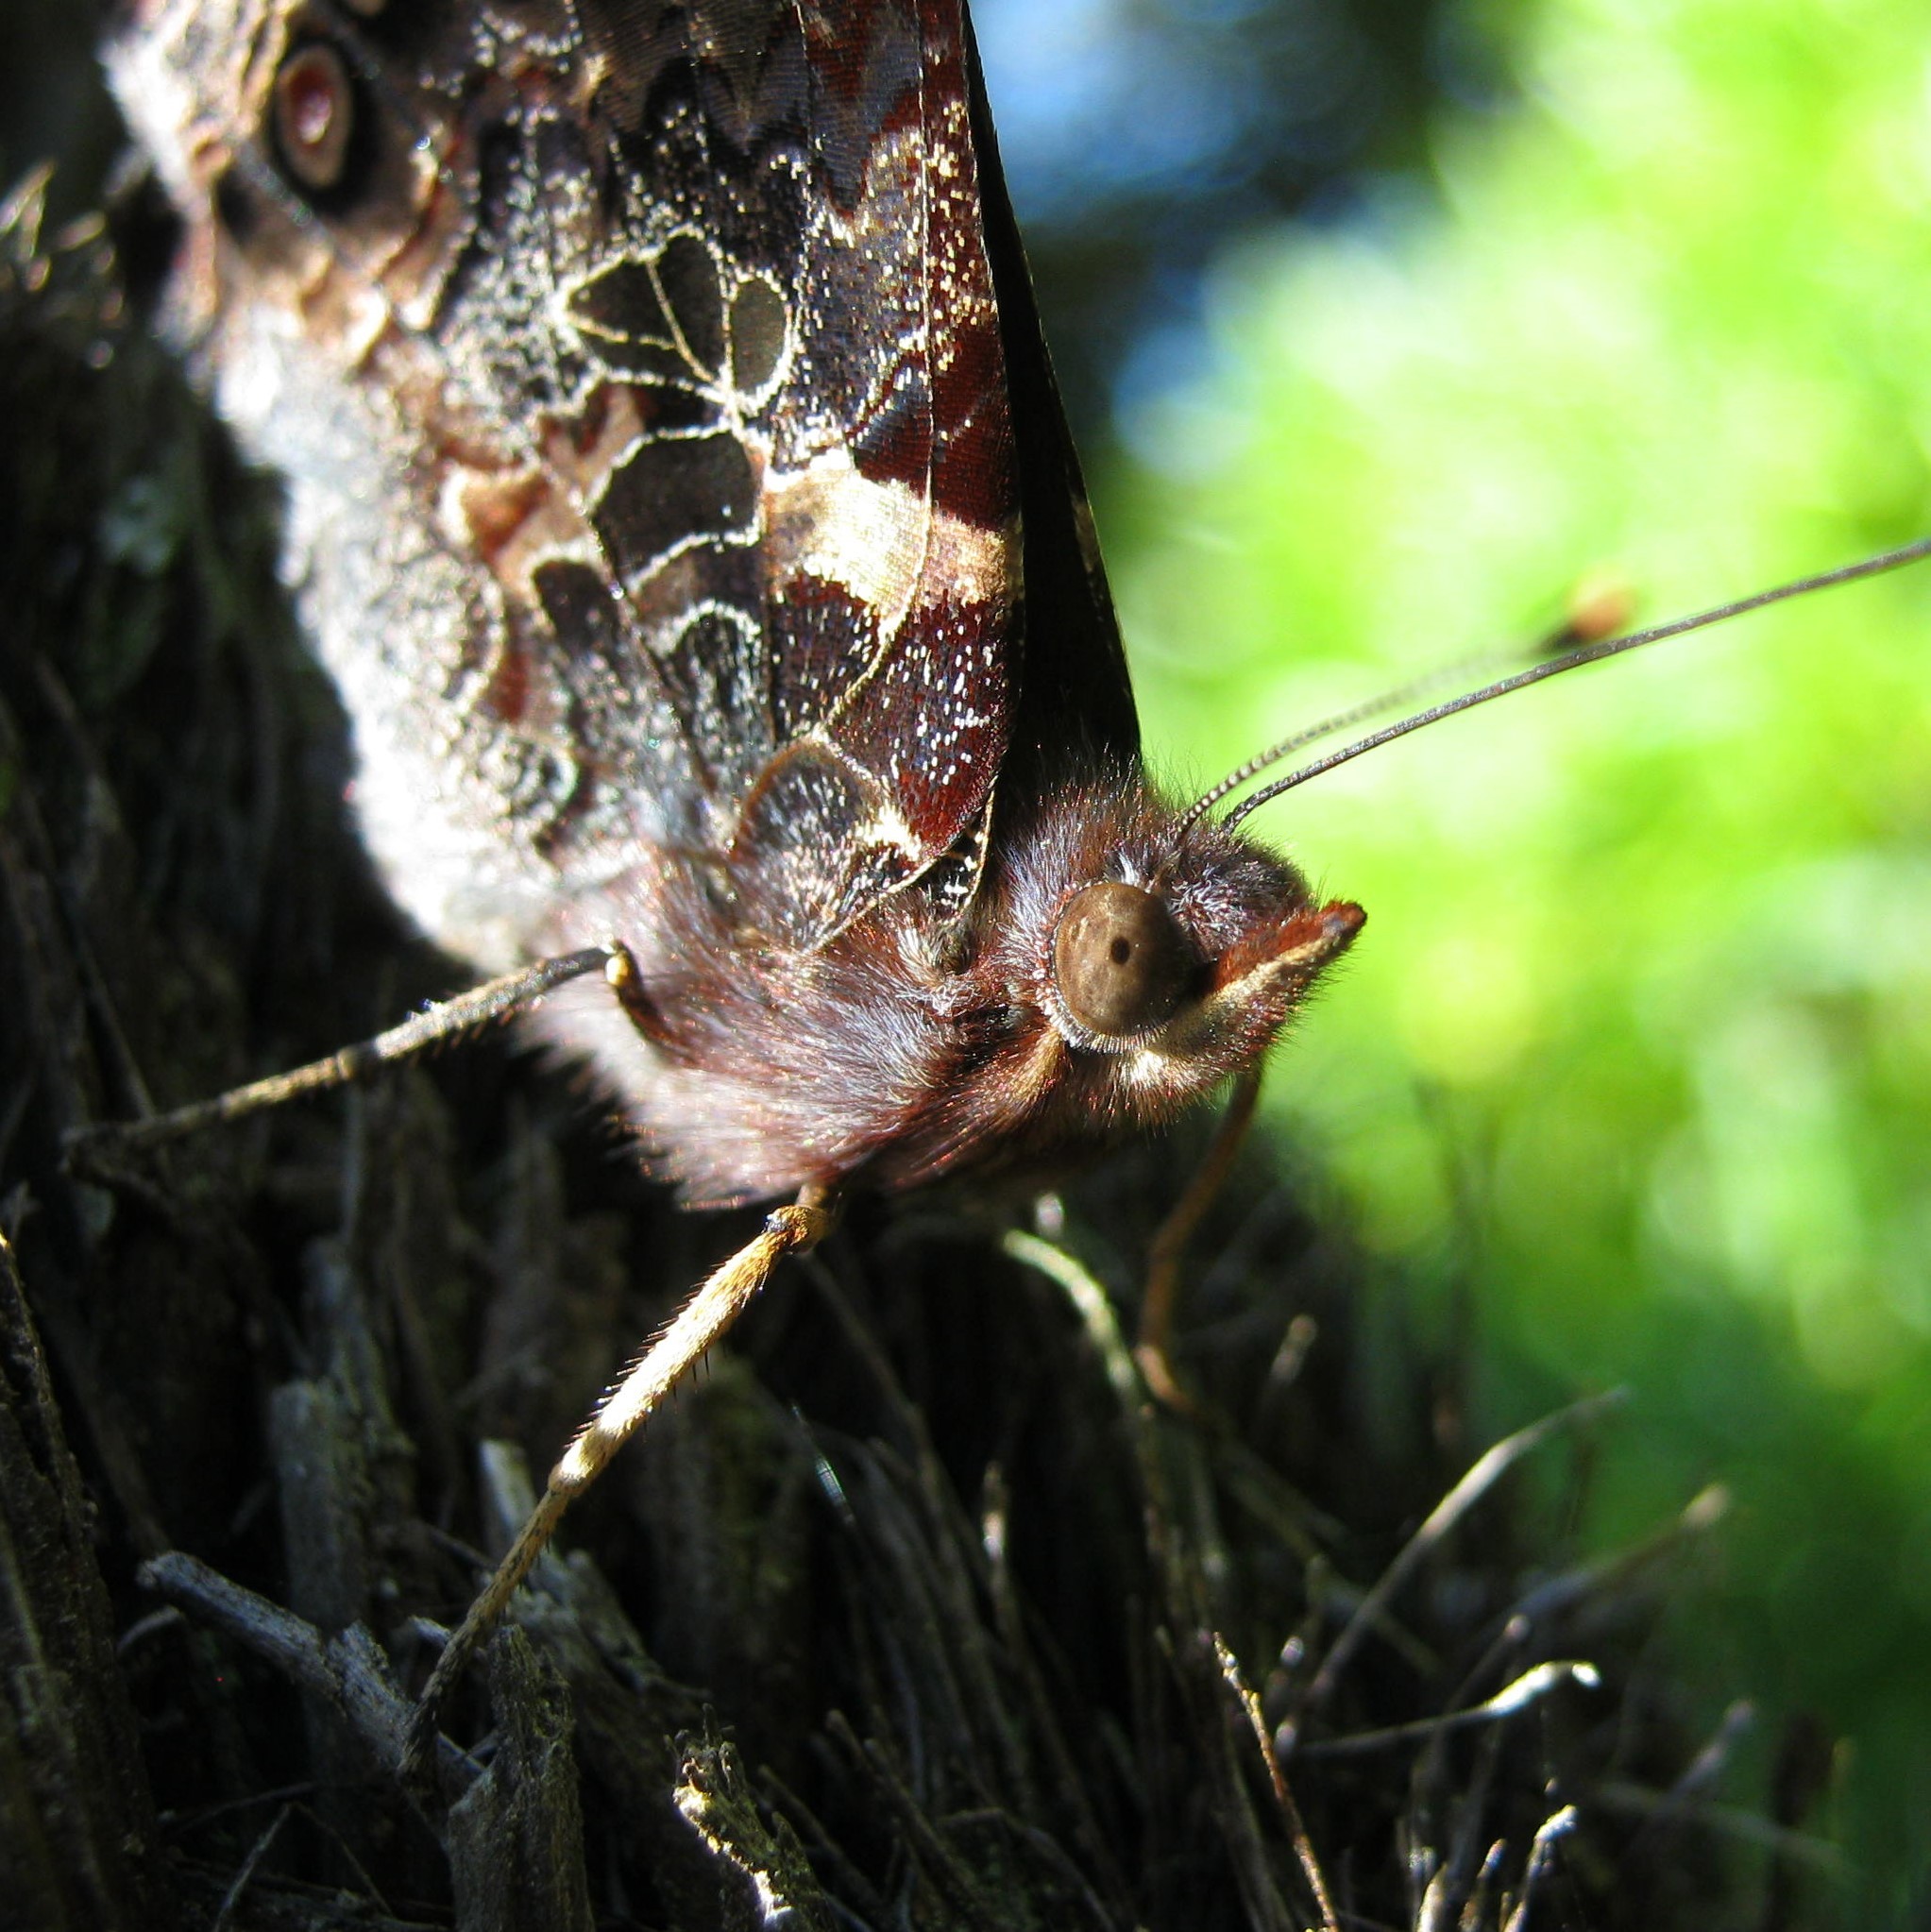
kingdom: Animalia
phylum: Arthropoda
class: Insecta
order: Lepidoptera
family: Nymphalidae
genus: Vanessa
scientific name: Vanessa gonerilla
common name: New zealand red admiral
